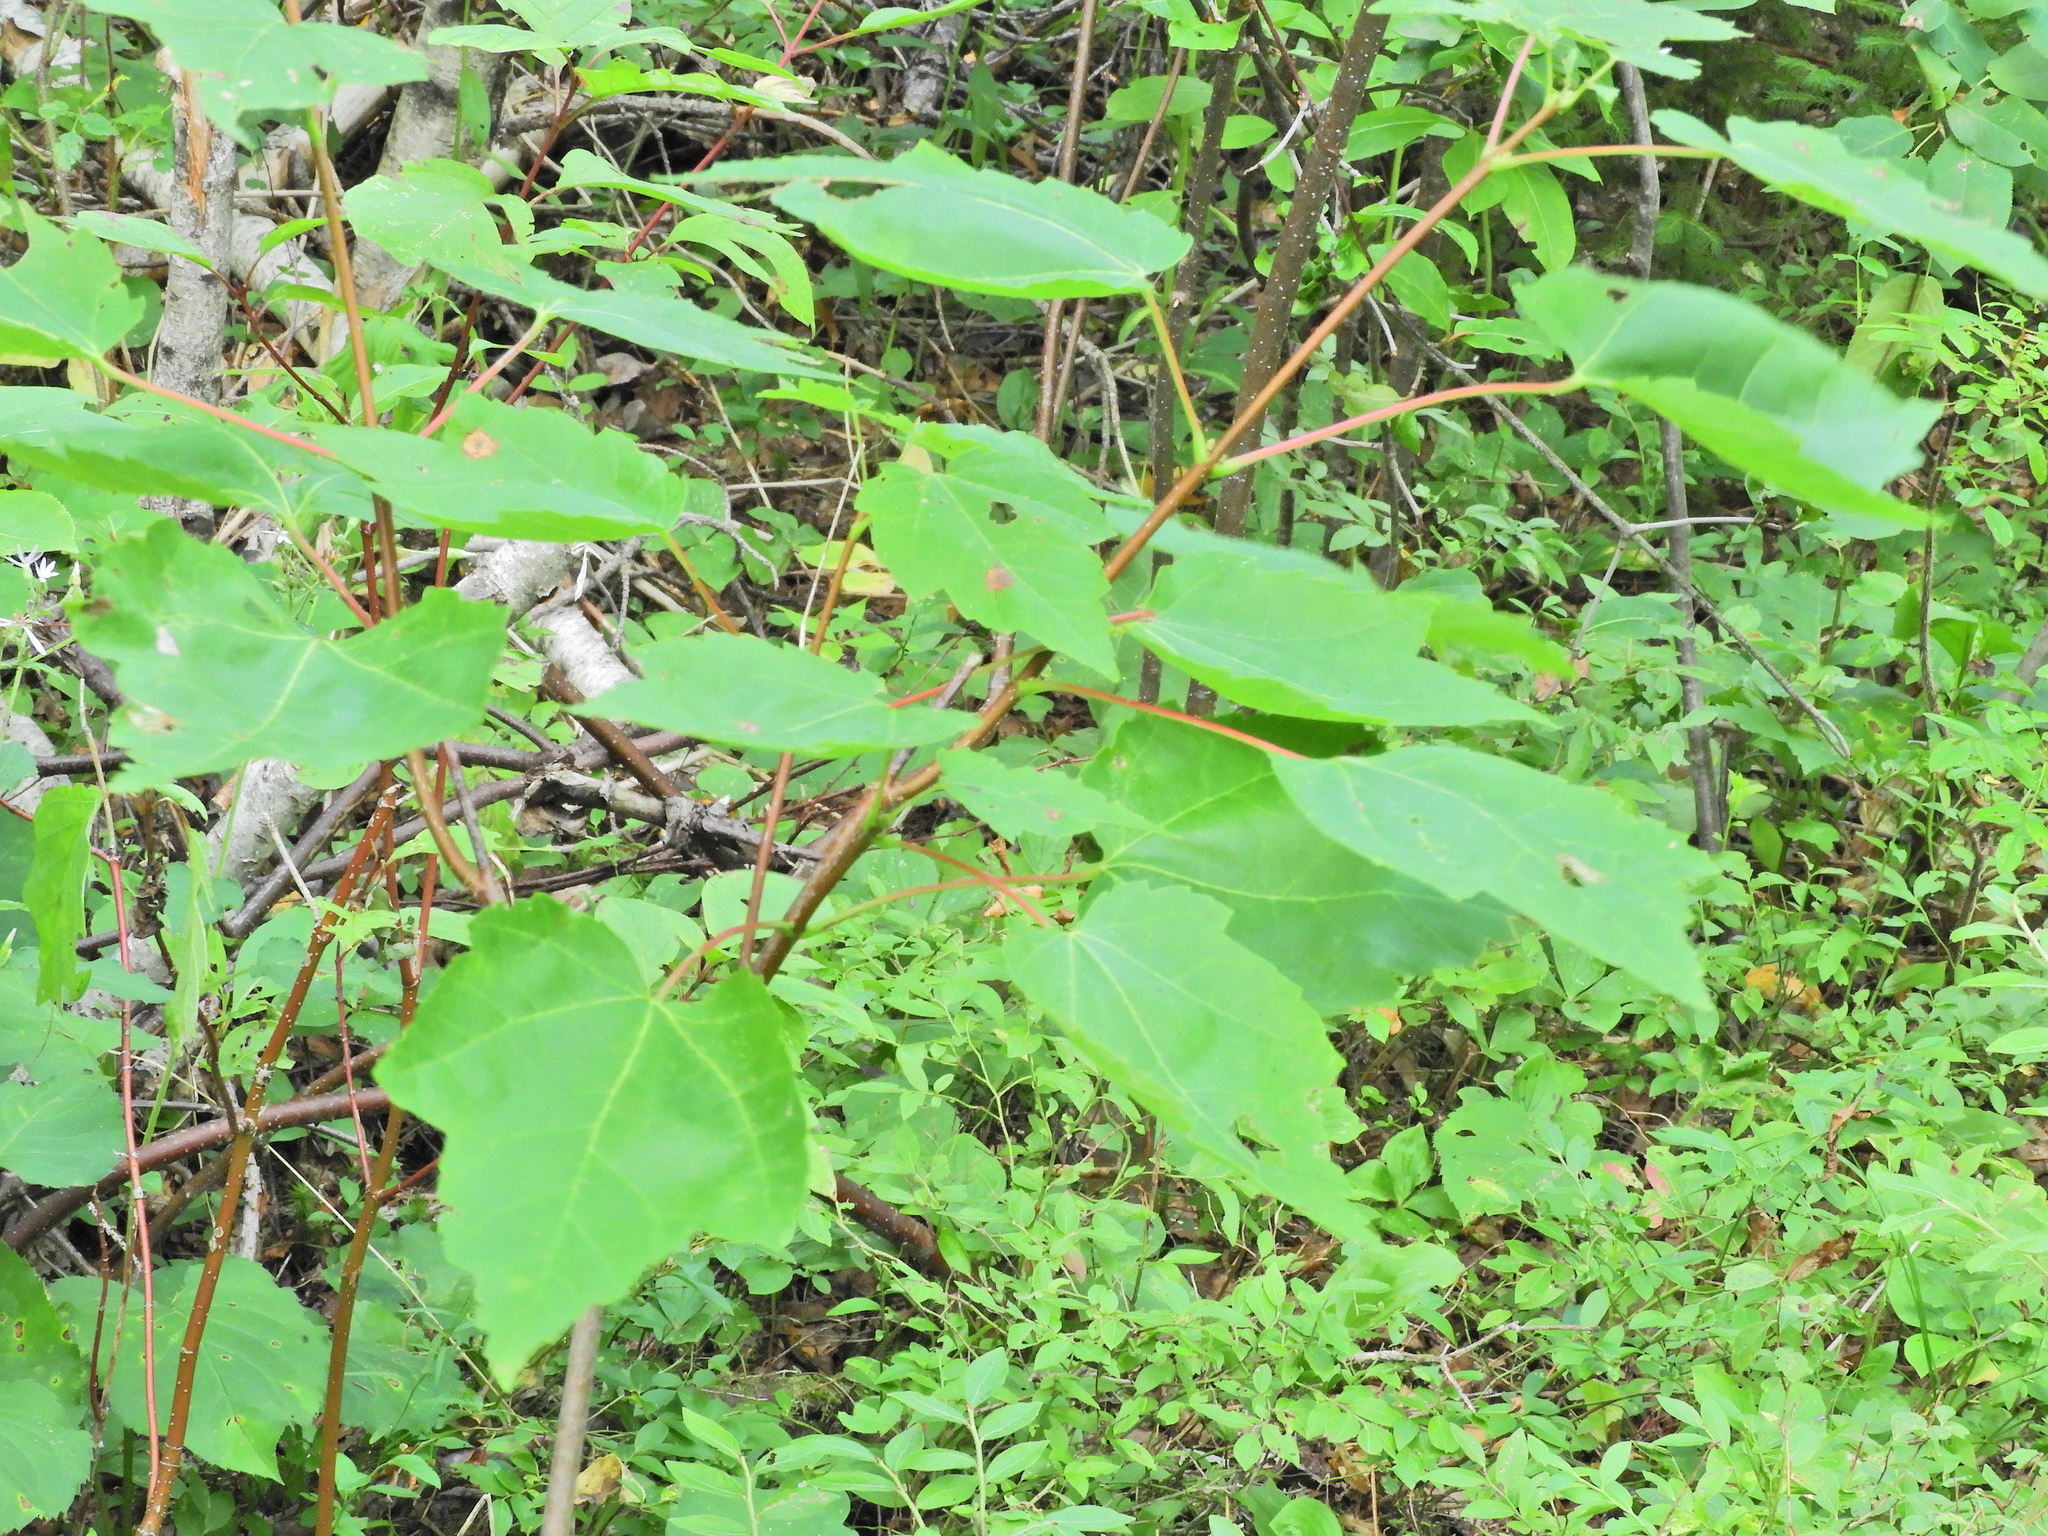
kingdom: Plantae
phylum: Tracheophyta
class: Magnoliopsida
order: Sapindales
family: Sapindaceae
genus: Acer
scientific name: Acer rubrum
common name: Red maple
